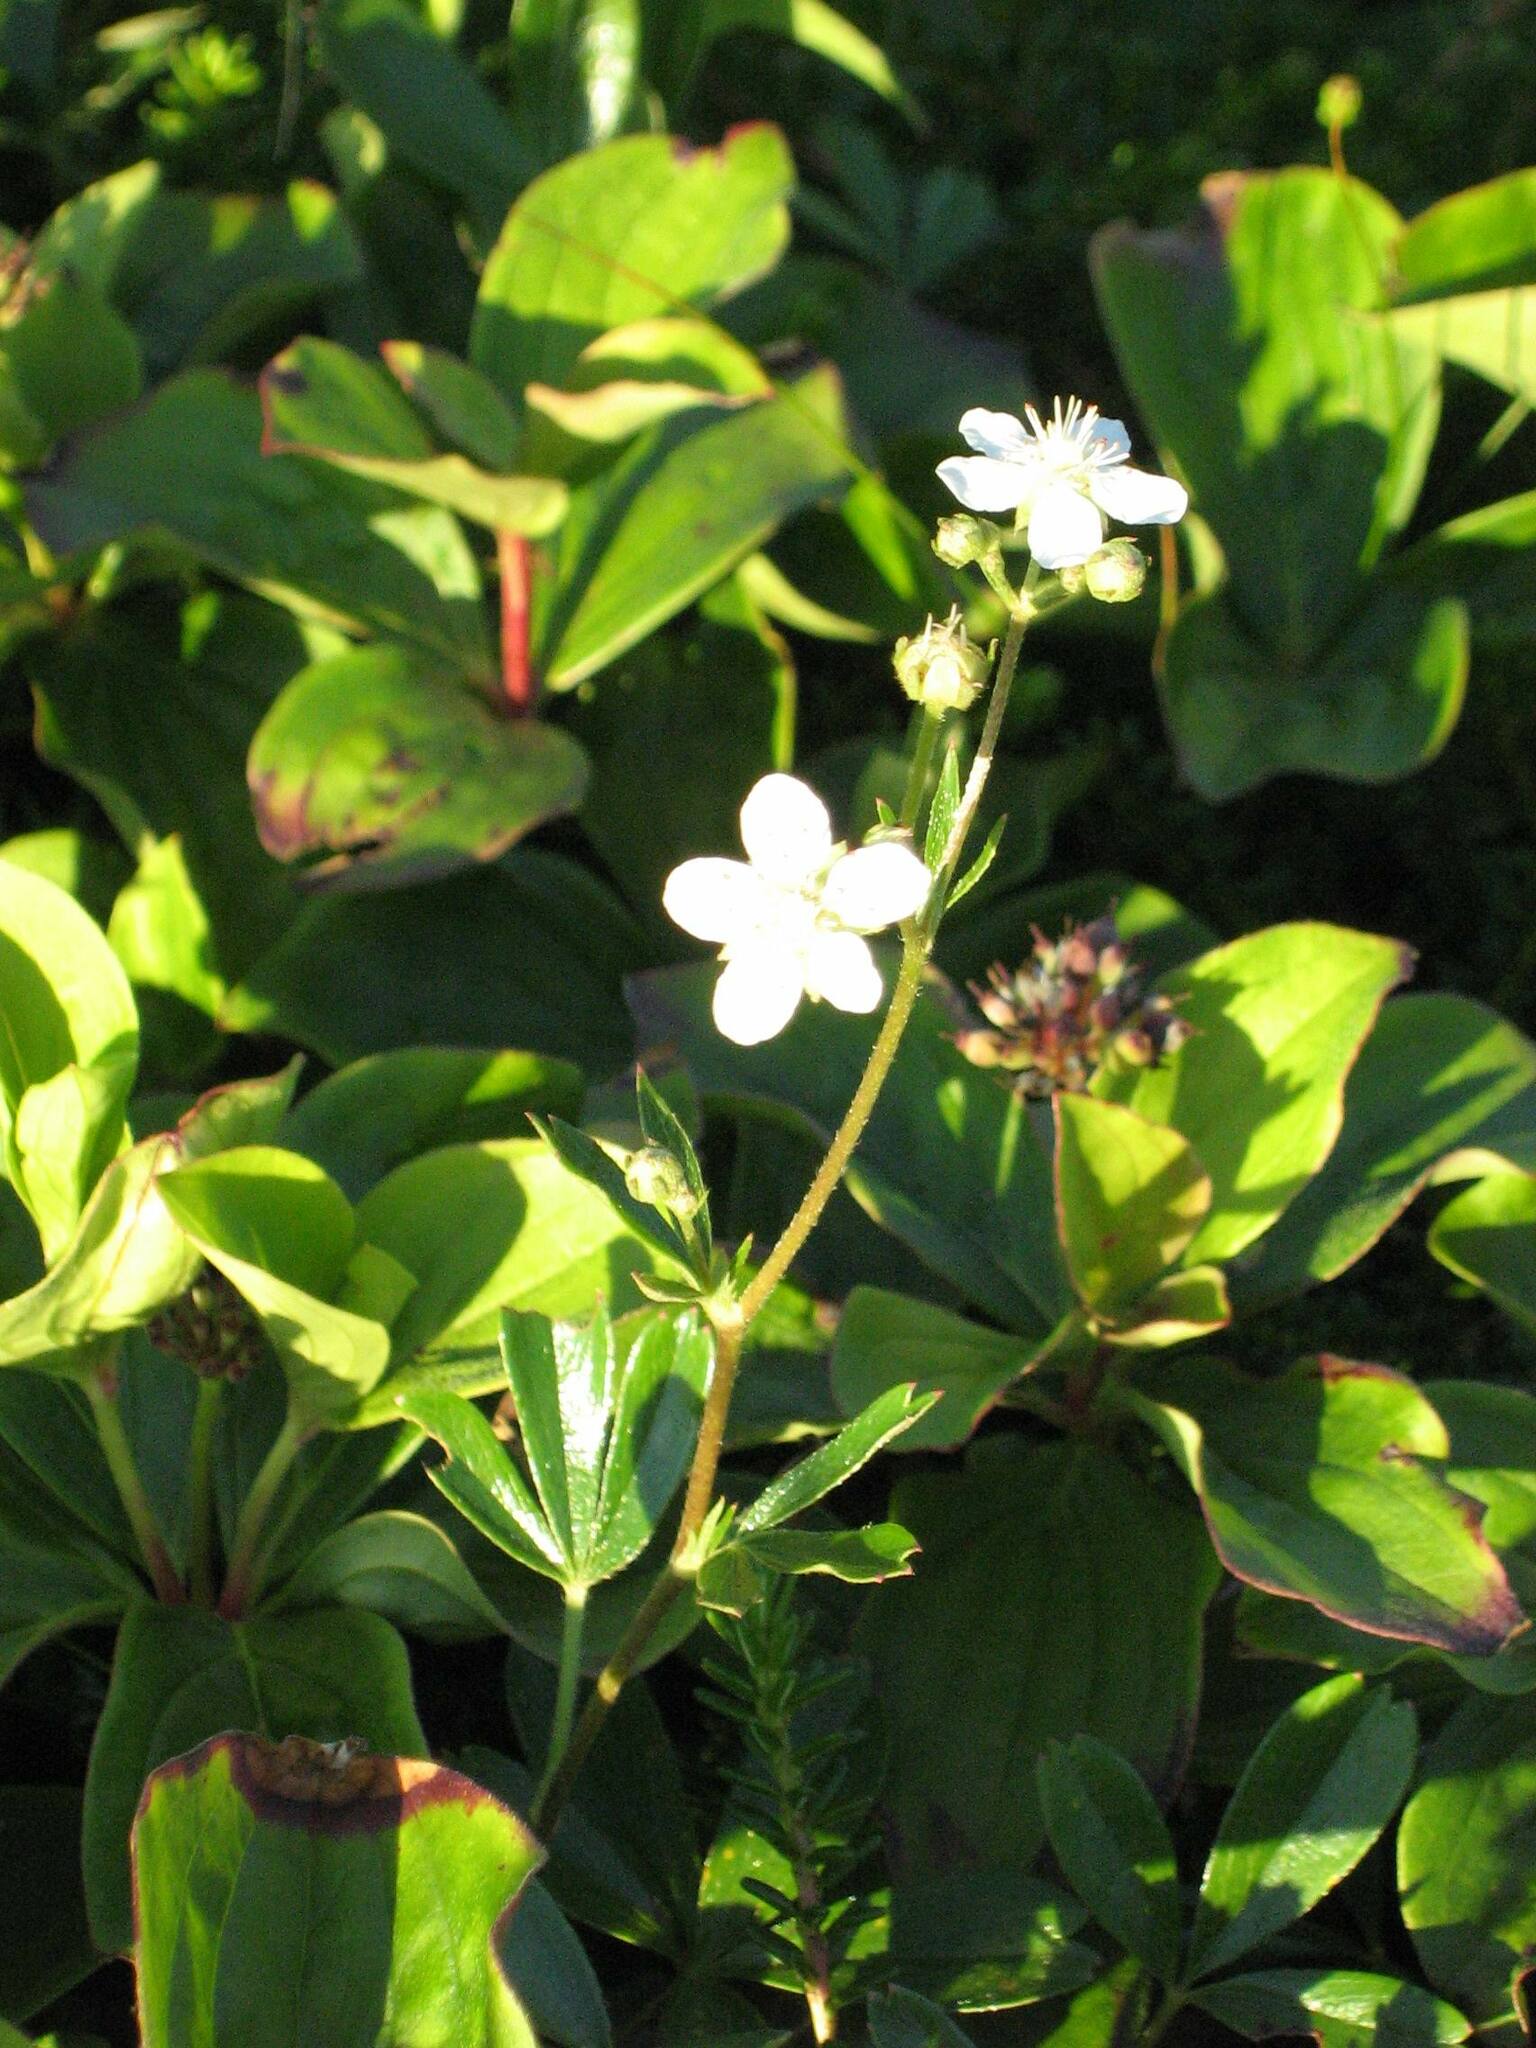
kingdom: Plantae
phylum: Tracheophyta
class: Magnoliopsida
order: Rosales
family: Rosaceae
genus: Sibbaldia
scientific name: Sibbaldia tridentata
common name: Three-toothed cinquefoil
